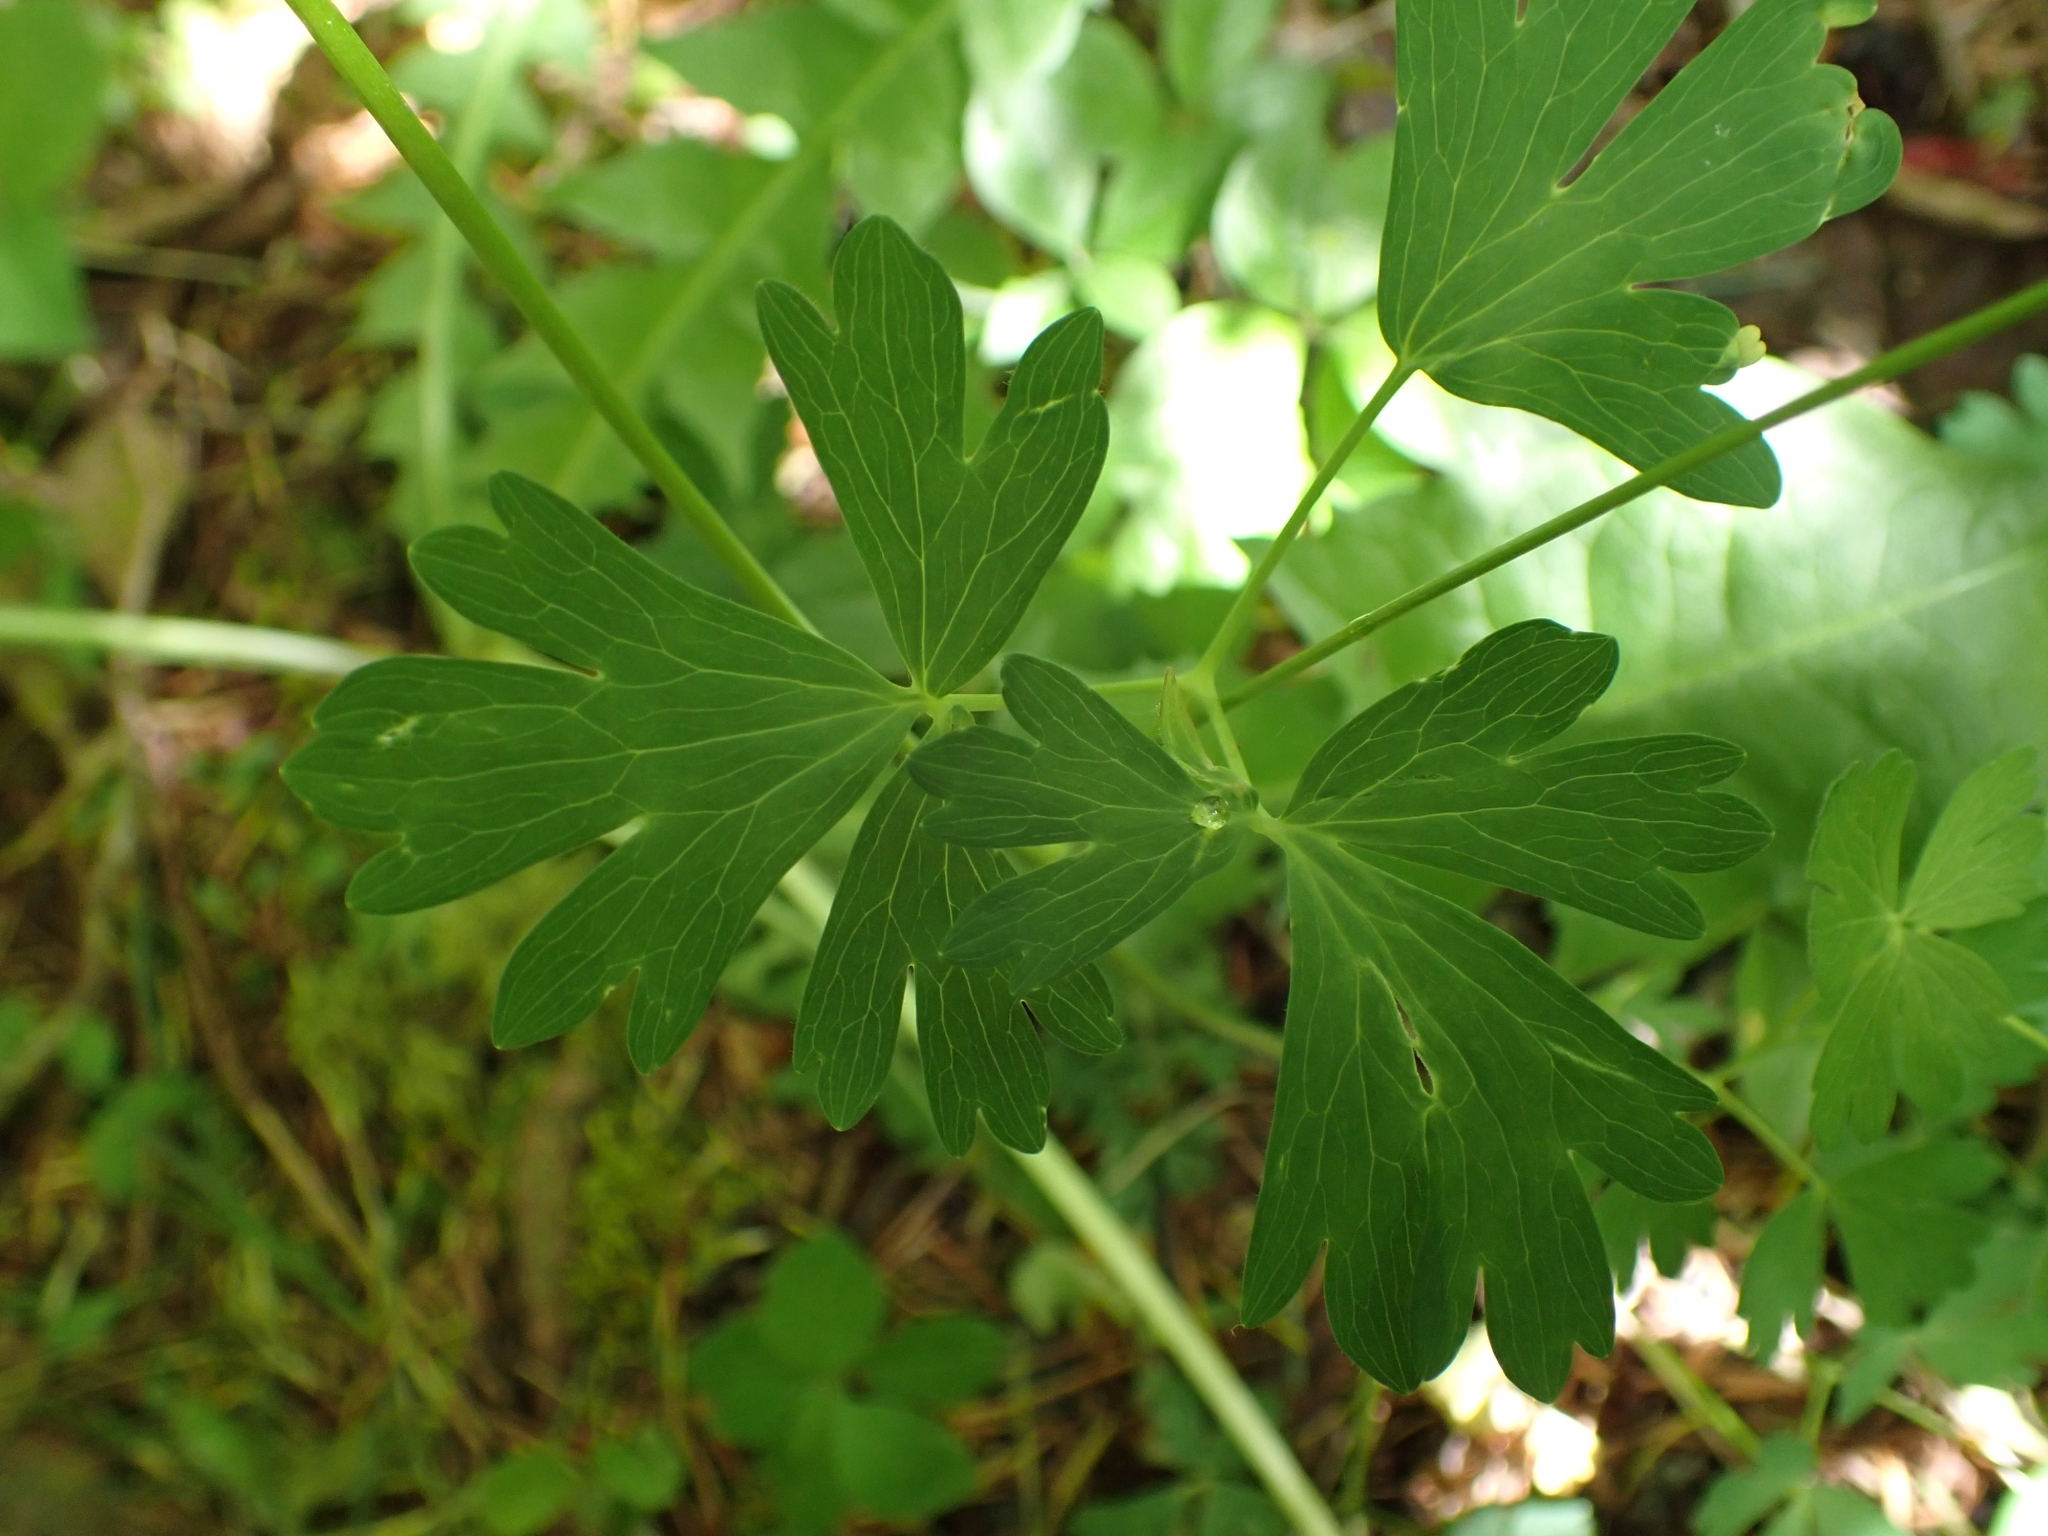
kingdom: Plantae
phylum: Tracheophyta
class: Magnoliopsida
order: Ranunculales
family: Ranunculaceae
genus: Aquilegia
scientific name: Aquilegia formosa
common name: Sitka columbine
